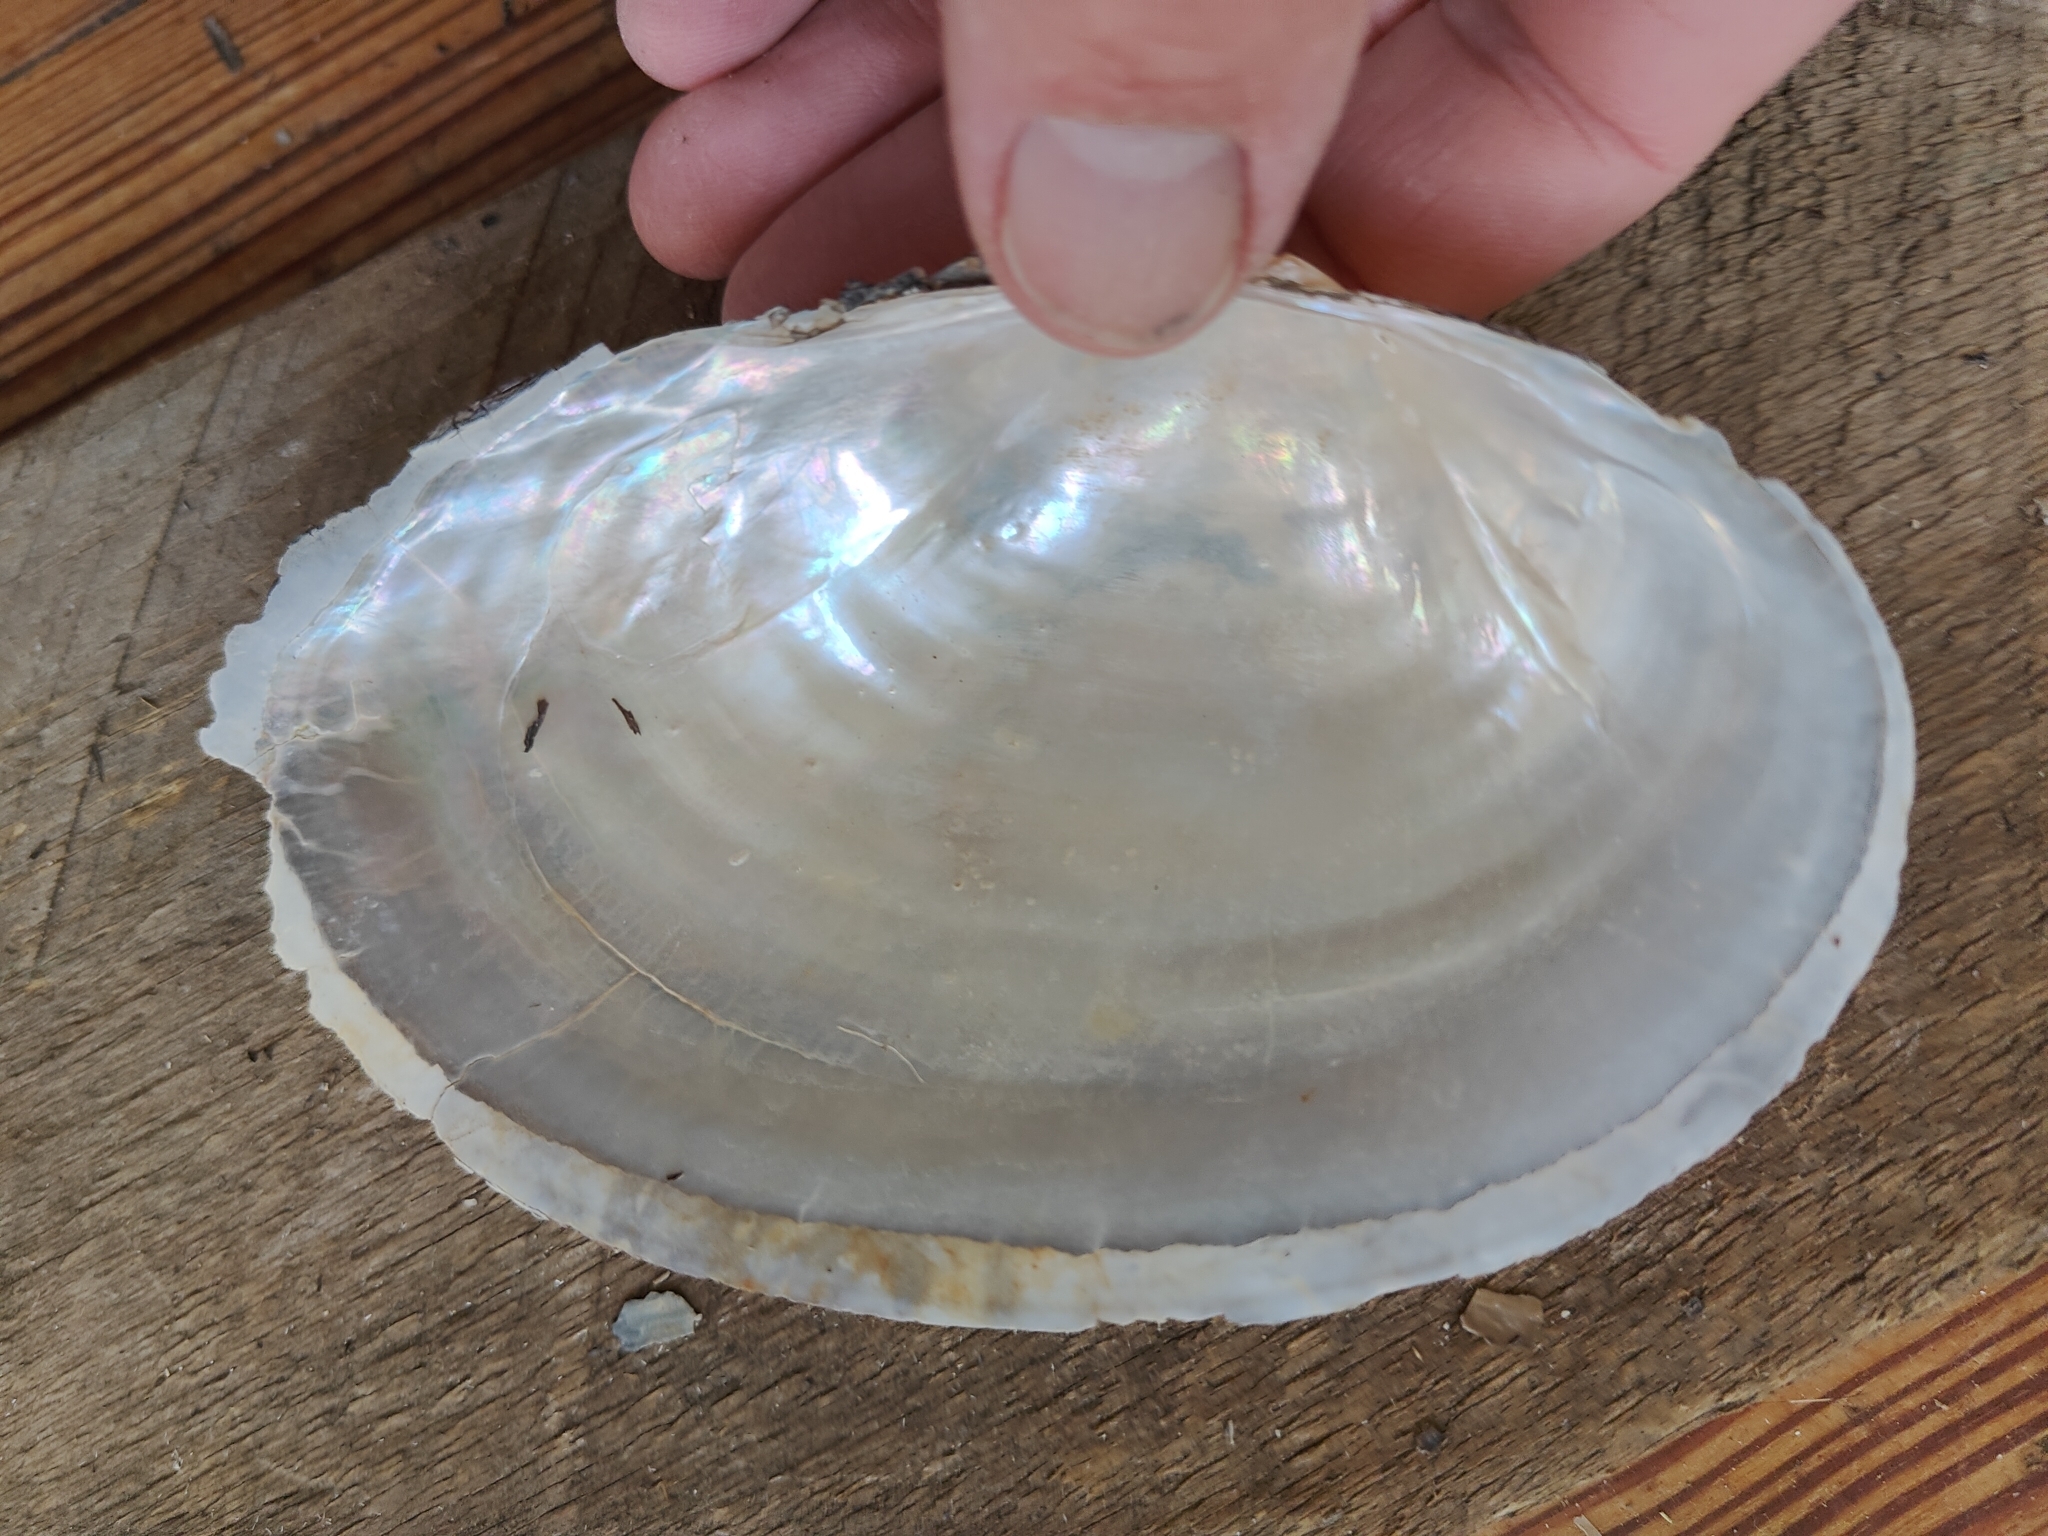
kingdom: Animalia
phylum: Mollusca
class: Bivalvia
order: Unionida
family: Unionidae
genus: Pyganodon
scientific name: Pyganodon grandis
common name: Giant floater
